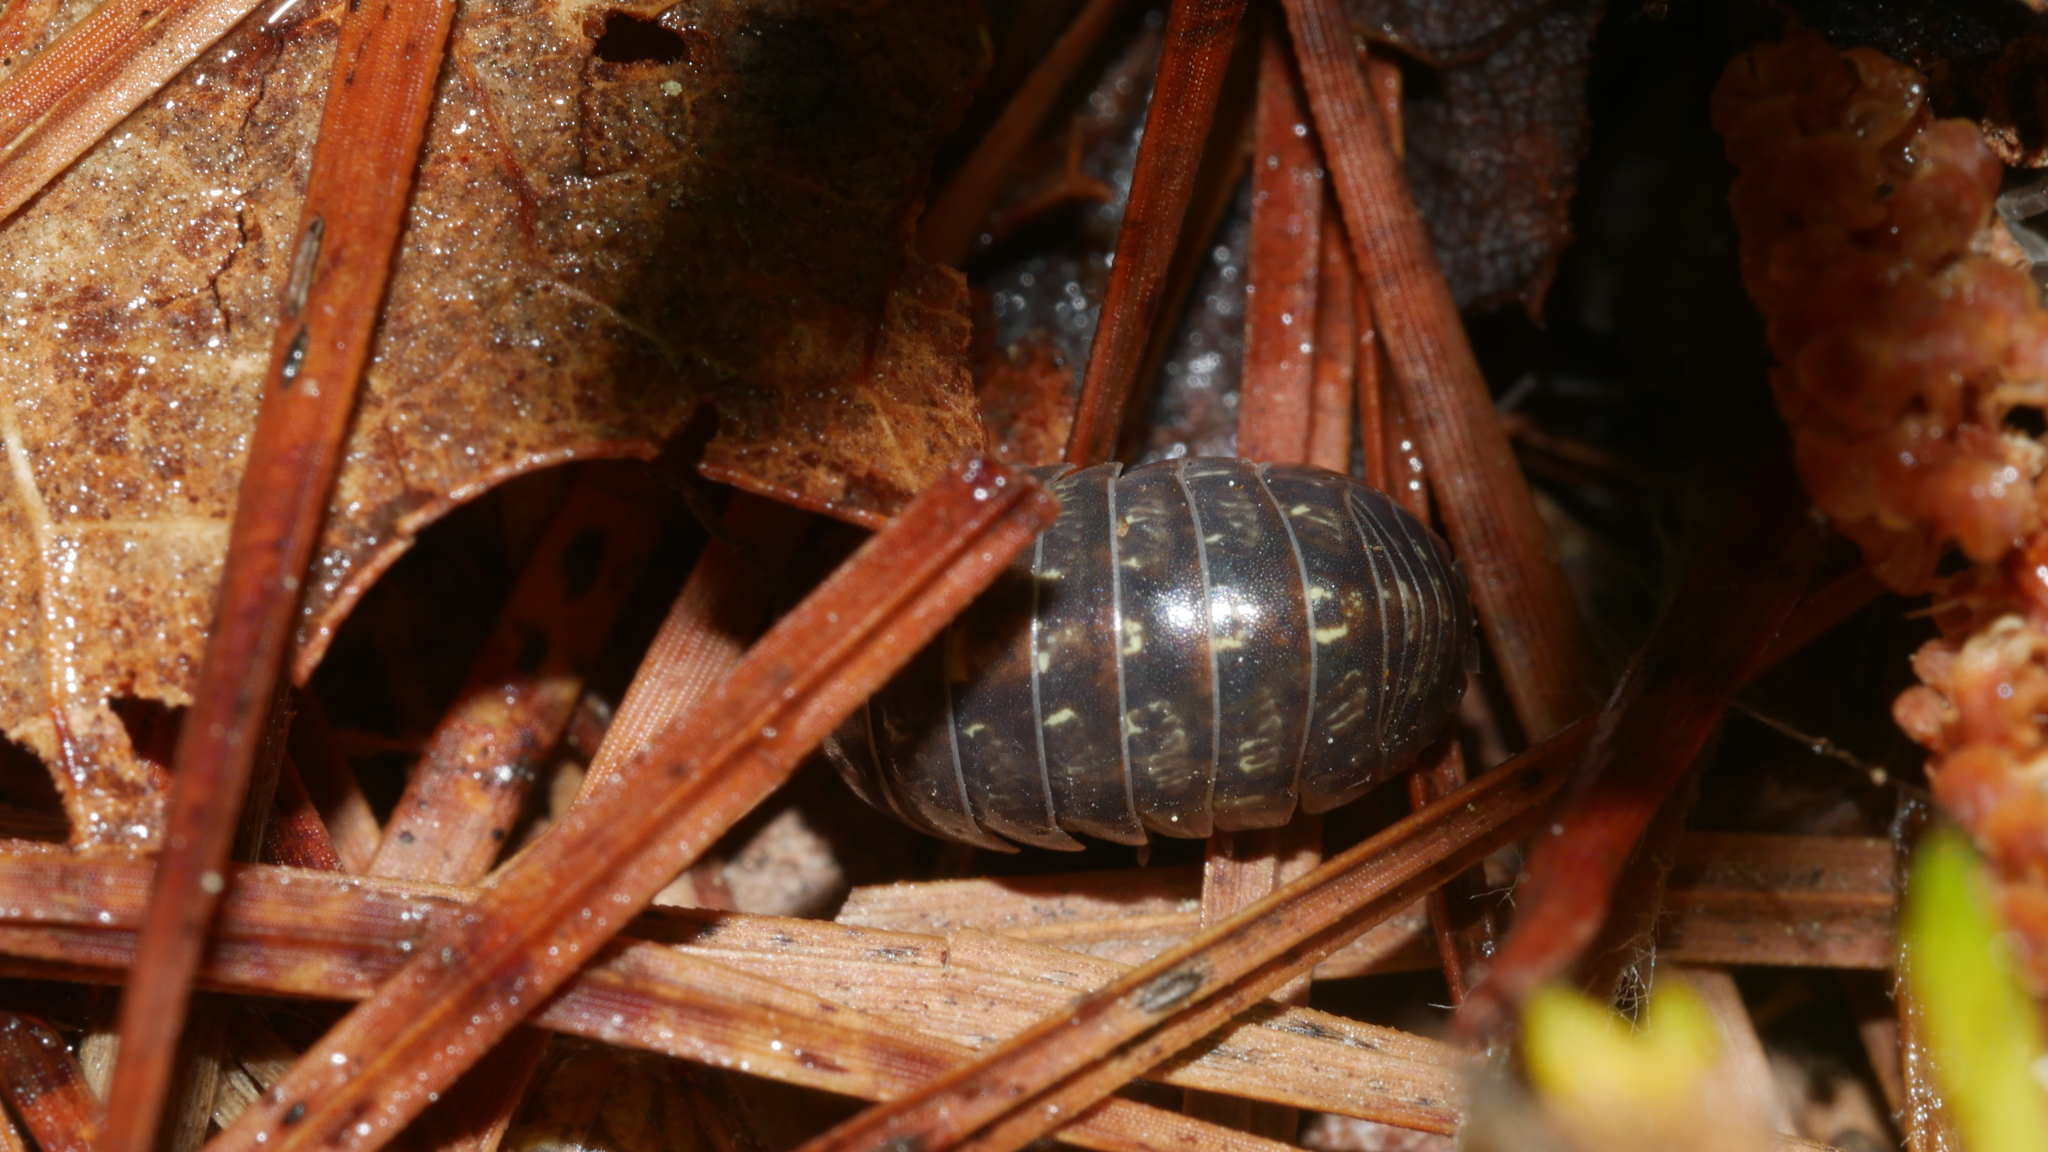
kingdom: Animalia
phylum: Arthropoda
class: Malacostraca
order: Isopoda
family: Armadillidiidae
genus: Armadillidium
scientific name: Armadillidium vulgare
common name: Common pill woodlouse
